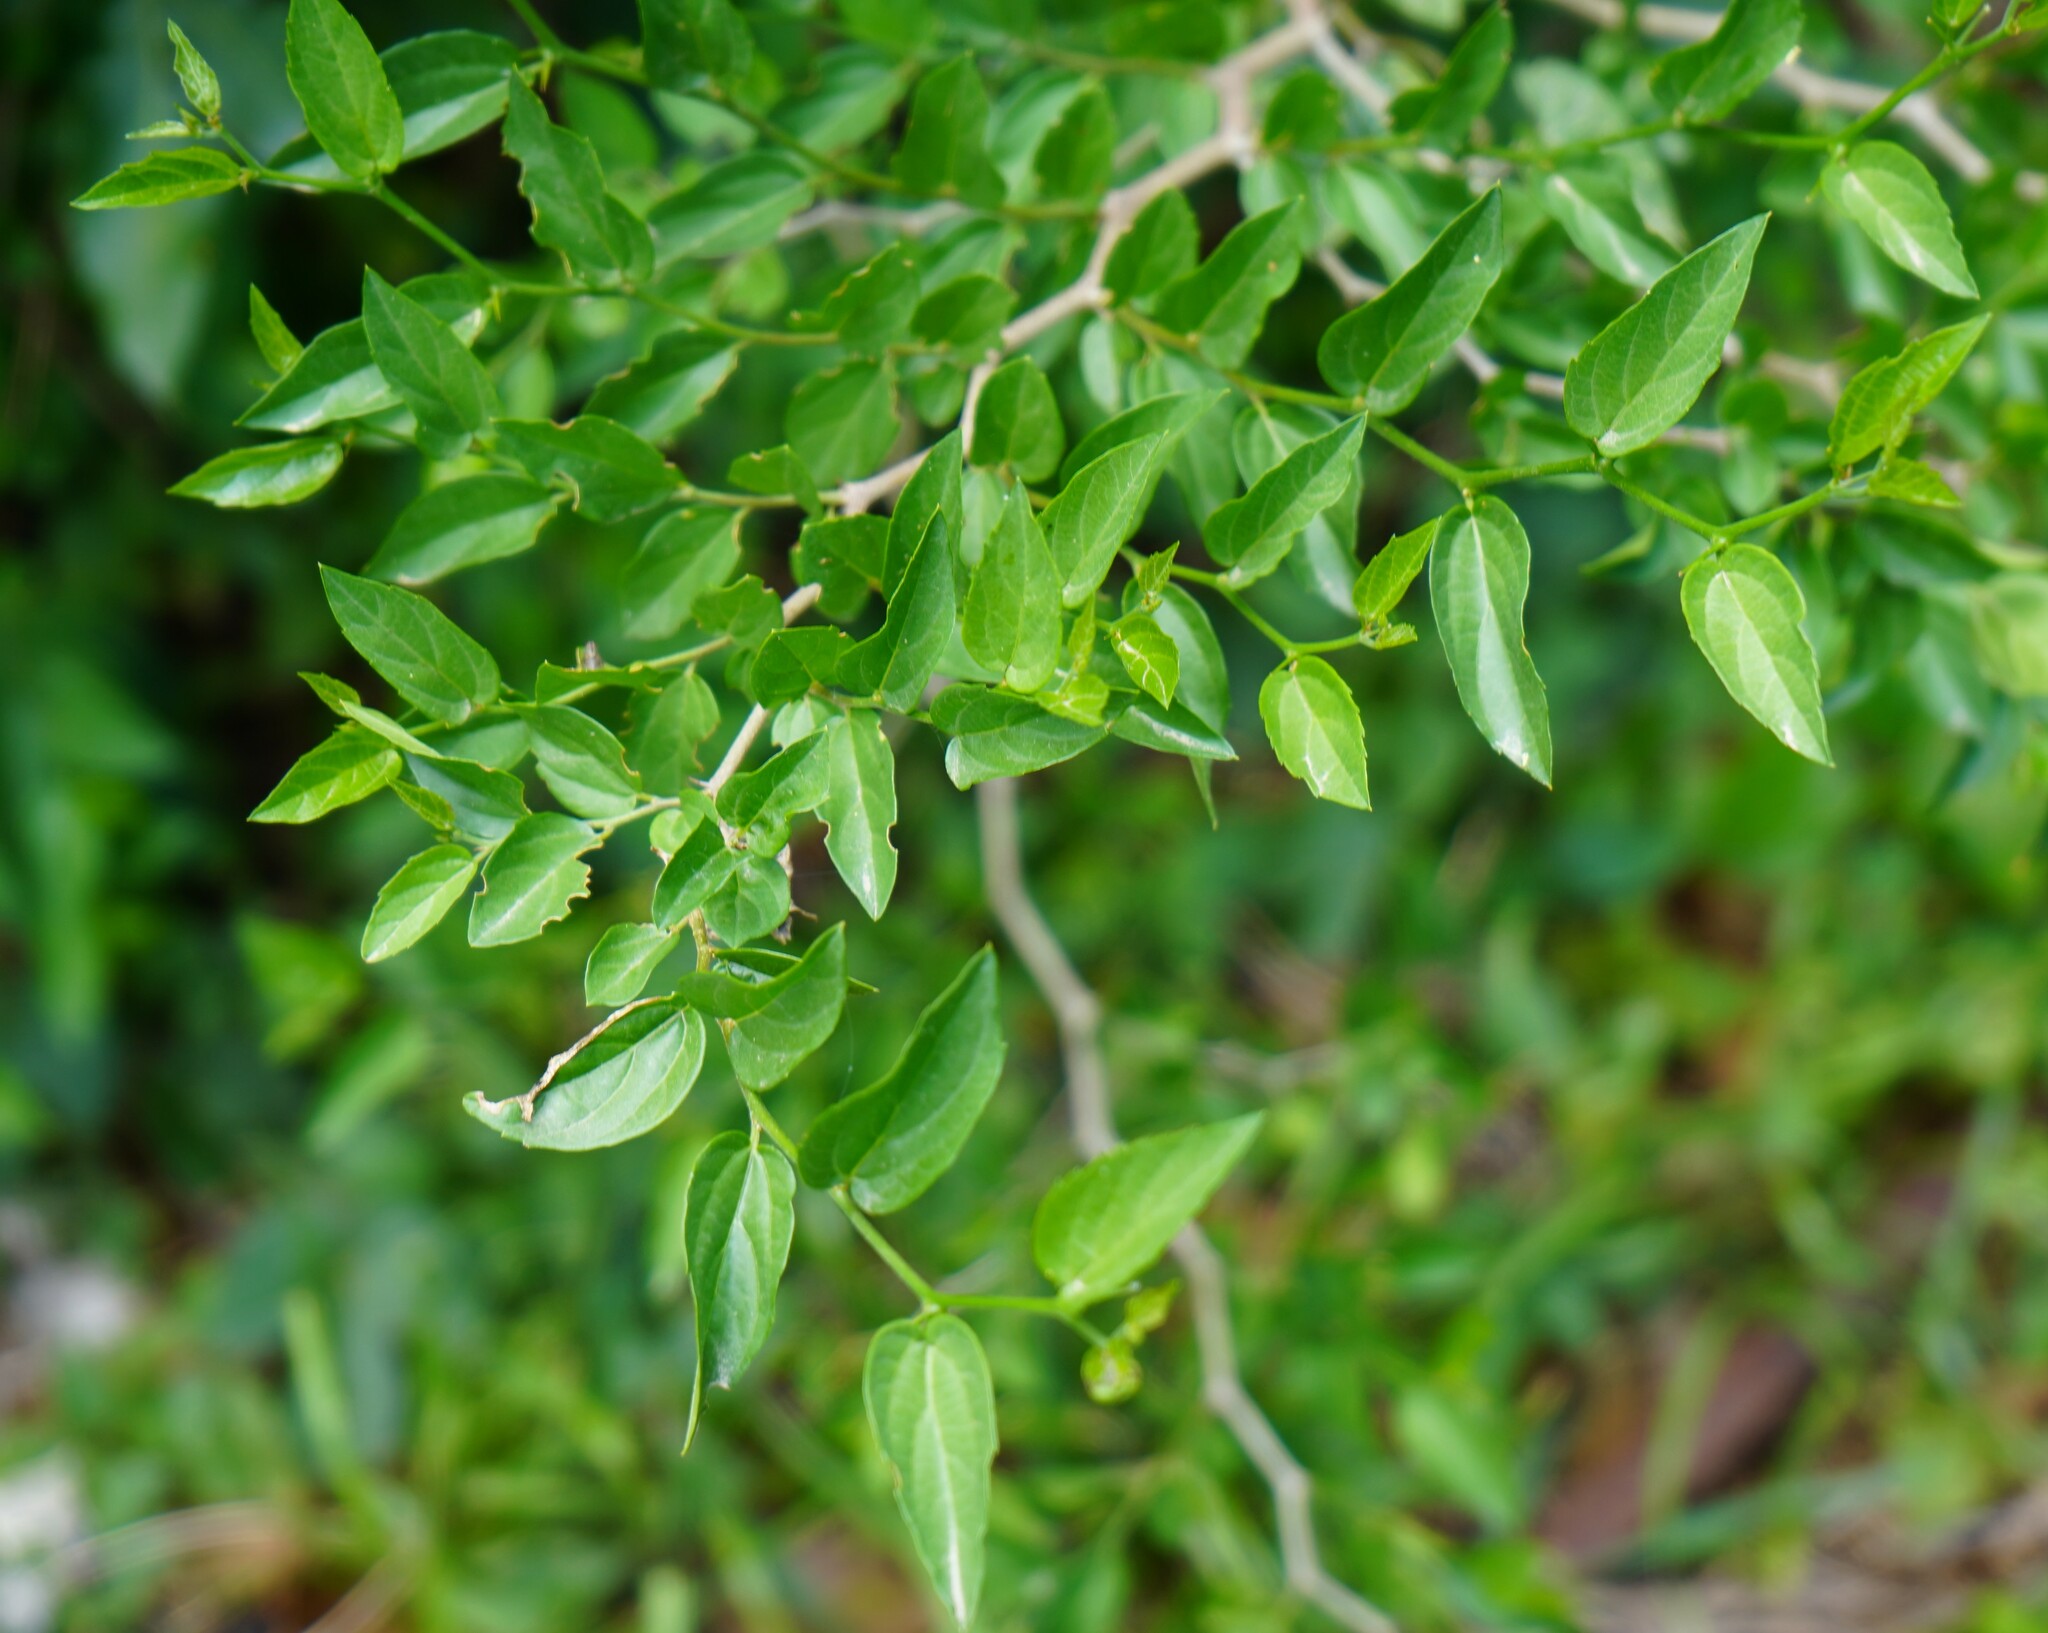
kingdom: Plantae
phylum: Tracheophyta
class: Magnoliopsida
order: Rosales
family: Cannabaceae
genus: Celtis
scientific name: Celtis tala
